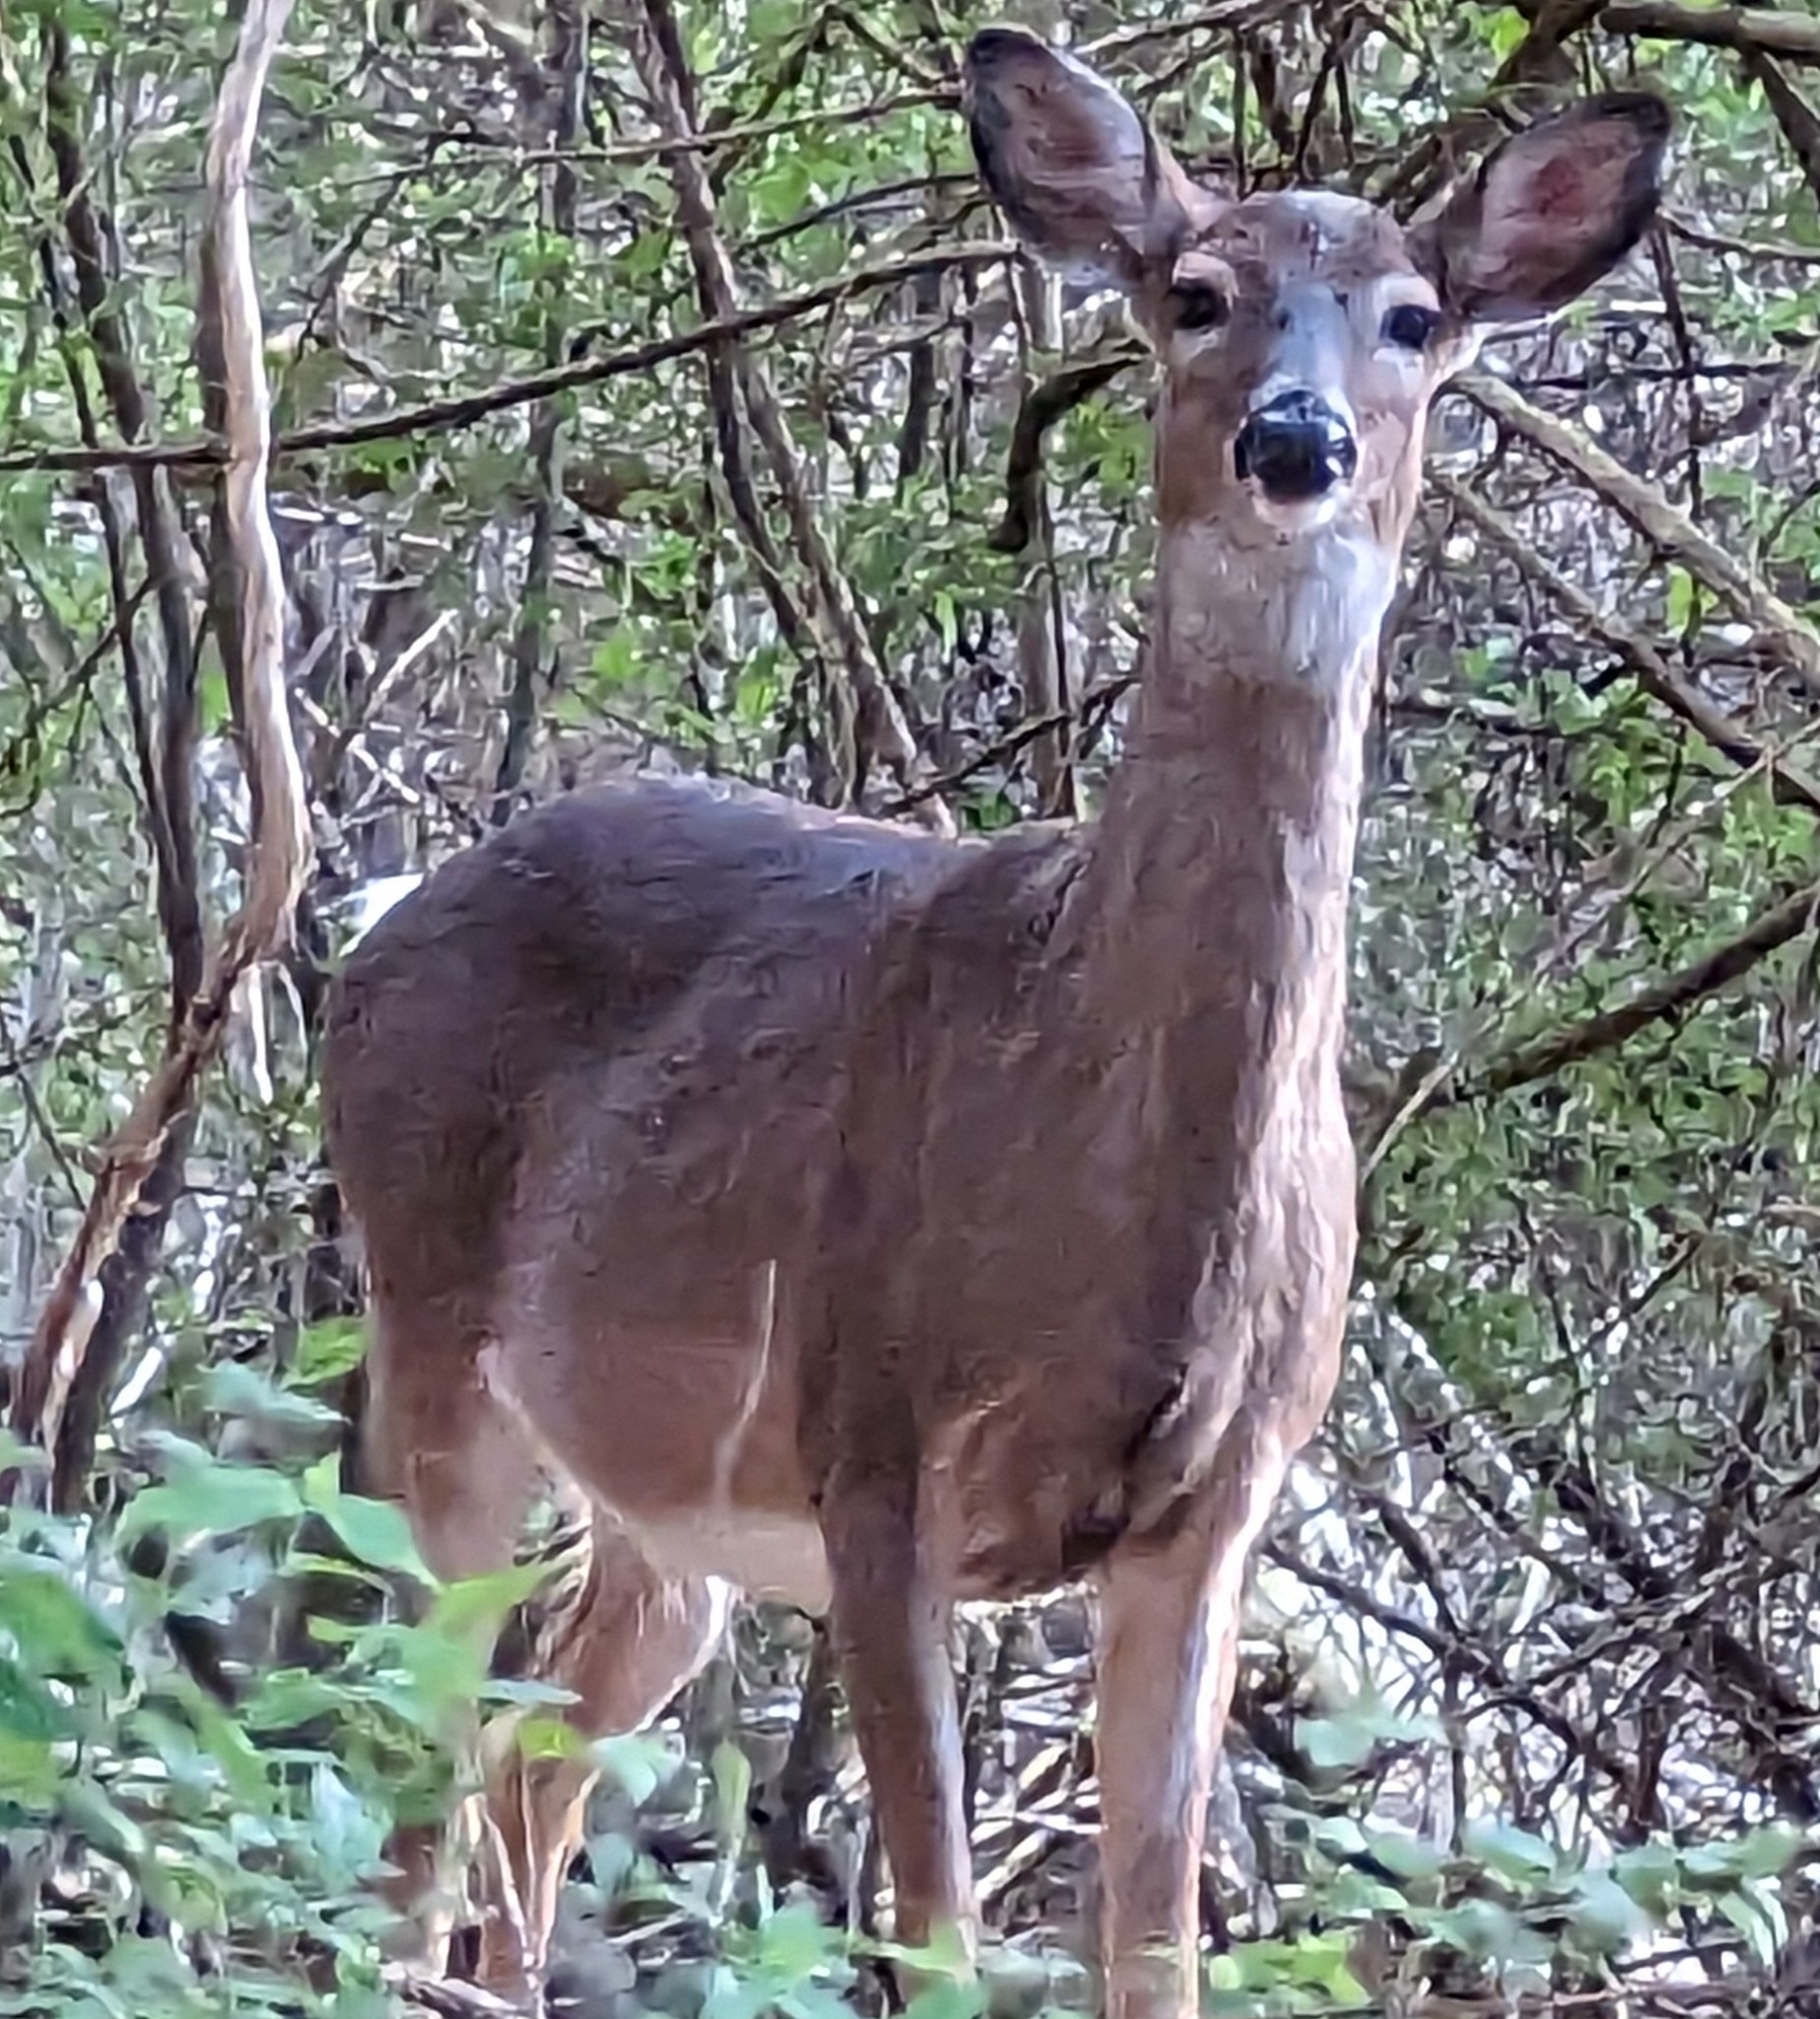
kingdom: Animalia
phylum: Chordata
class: Mammalia
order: Artiodactyla
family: Cervidae
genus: Odocoileus
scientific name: Odocoileus virginianus
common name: White-tailed deer
